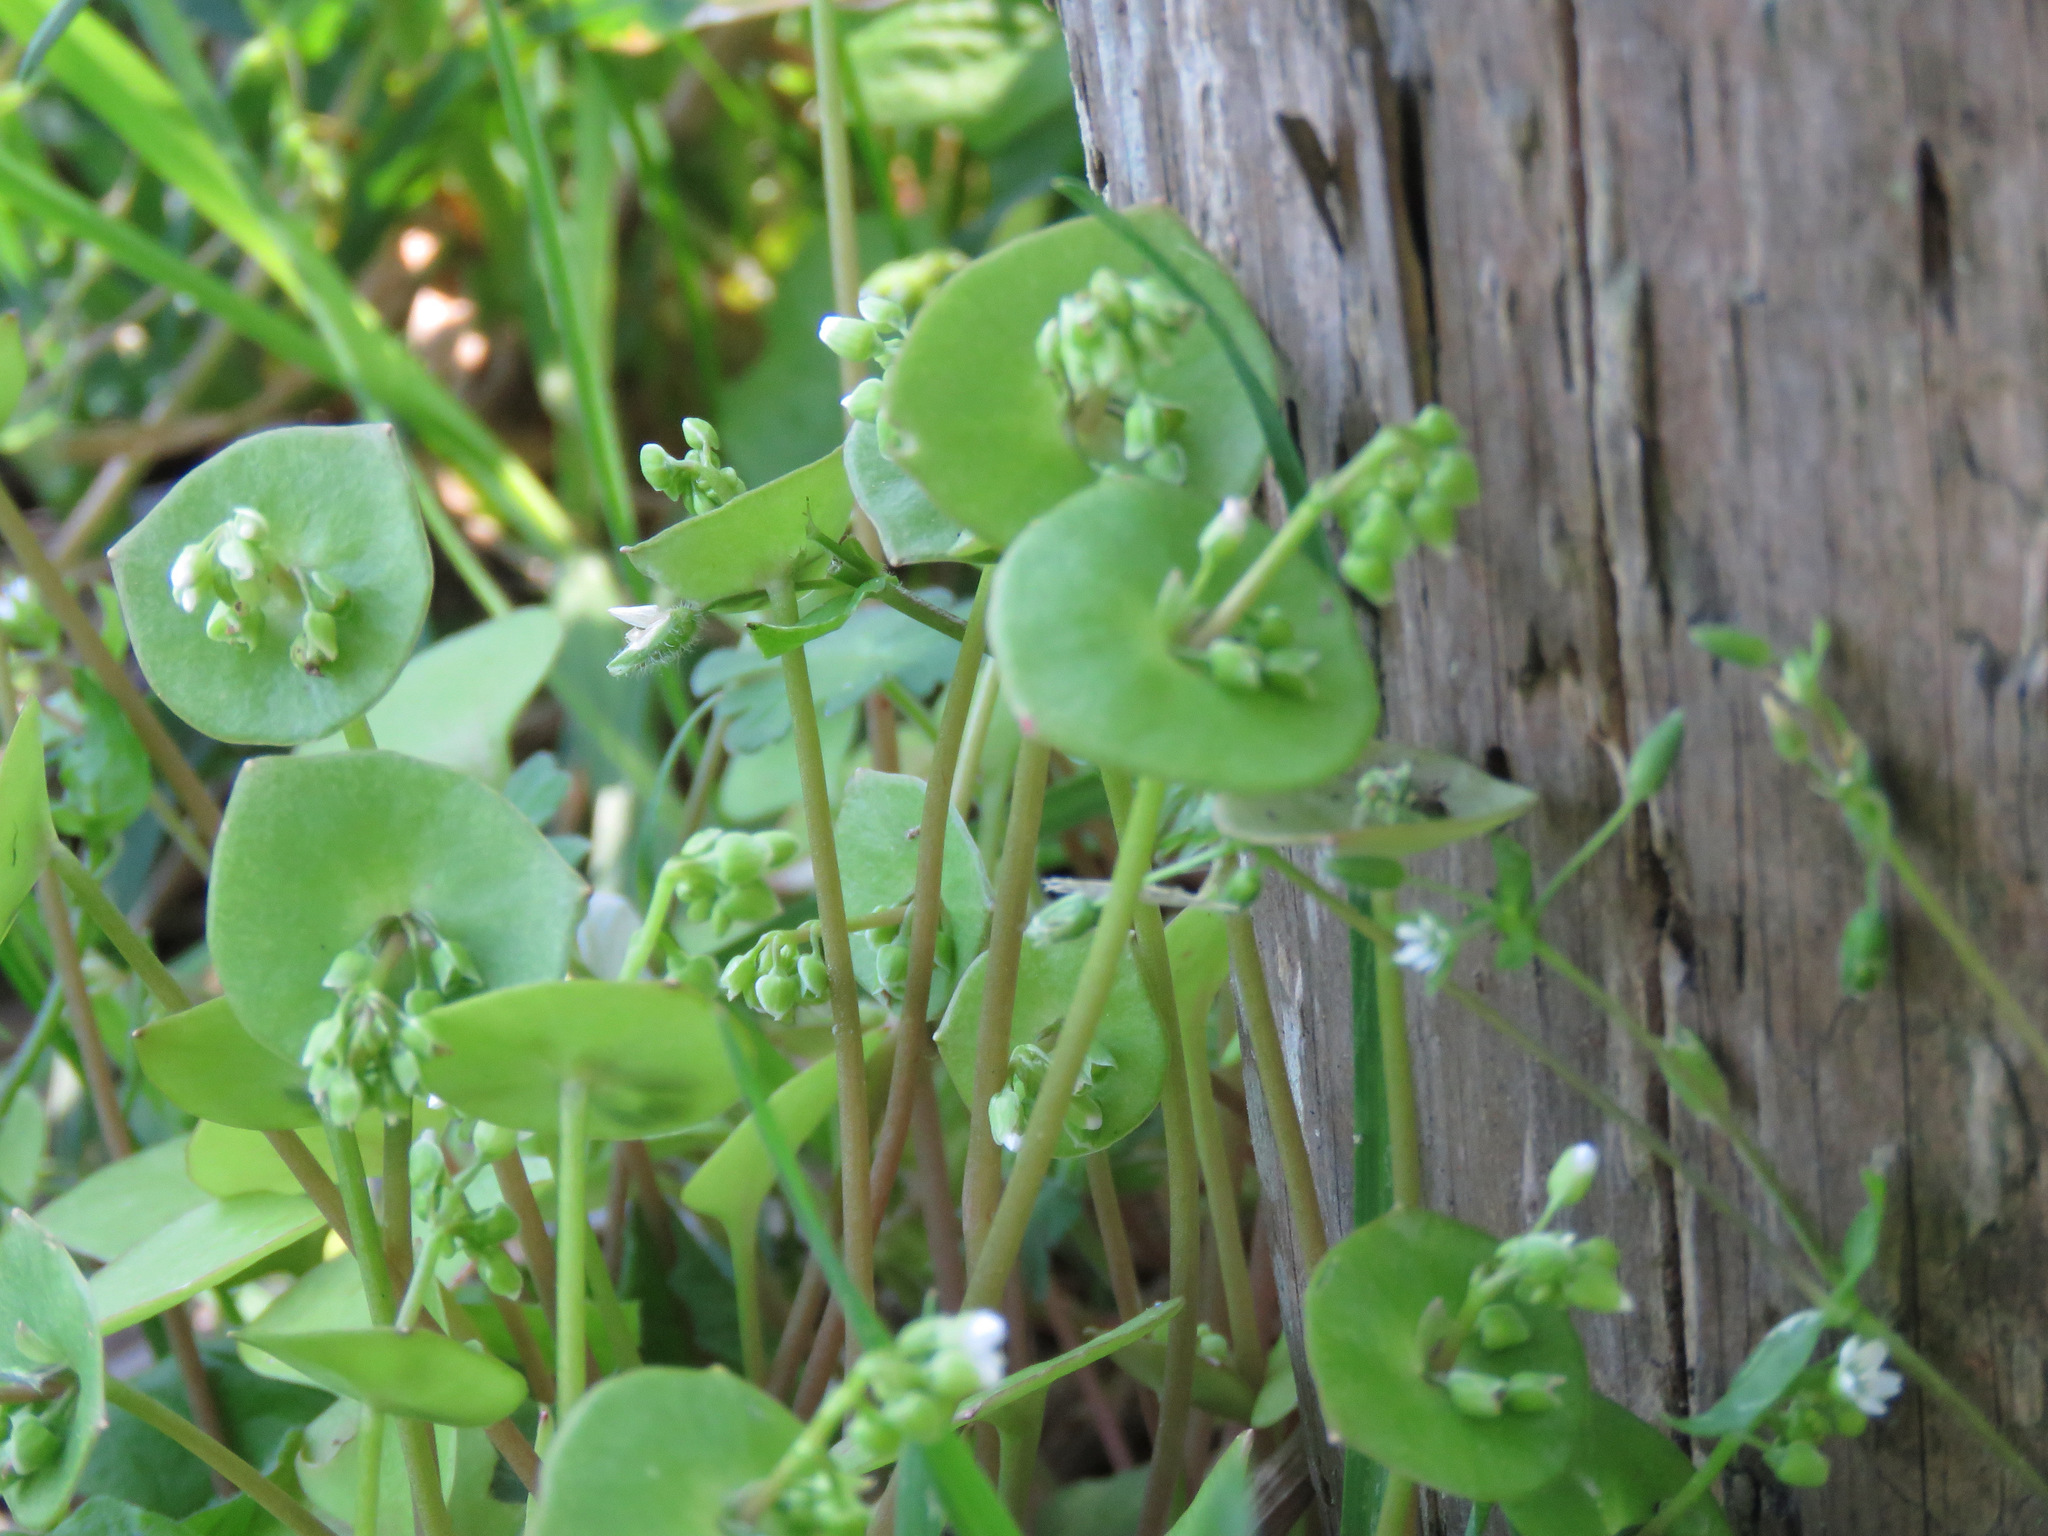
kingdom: Plantae
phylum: Tracheophyta
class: Magnoliopsida
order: Caryophyllales
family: Montiaceae
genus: Claytonia
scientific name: Claytonia perfoliata
